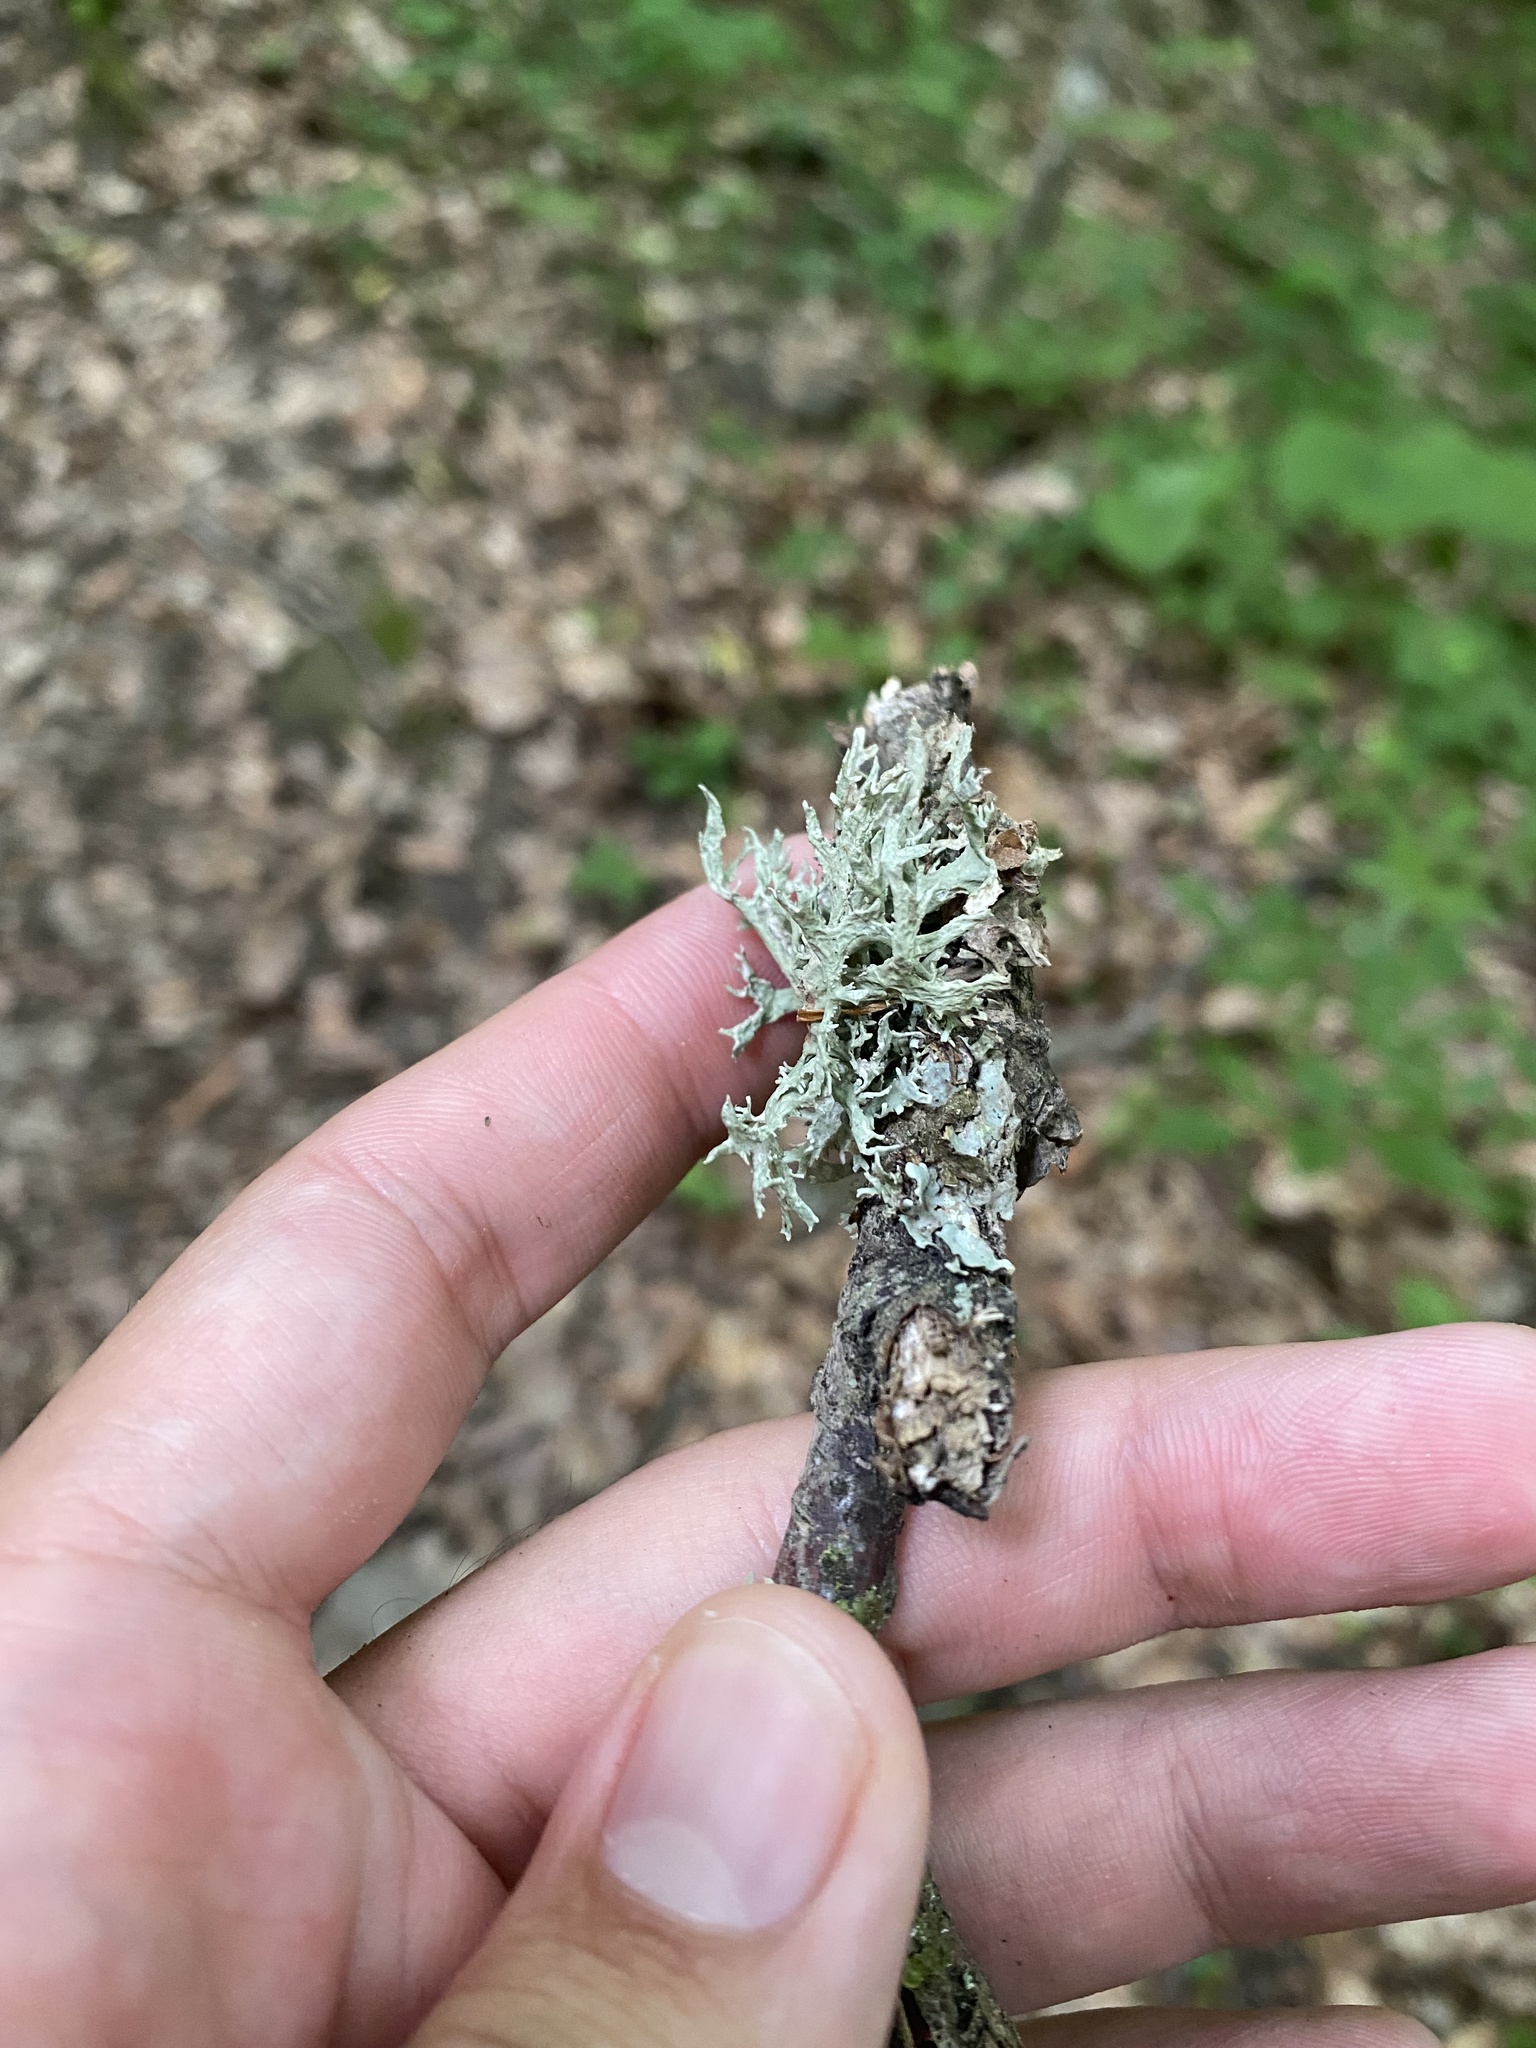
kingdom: Fungi
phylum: Ascomycota
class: Lecanoromycetes
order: Lecanorales
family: Parmeliaceae
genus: Evernia
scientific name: Evernia prunastri
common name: Oak moss
